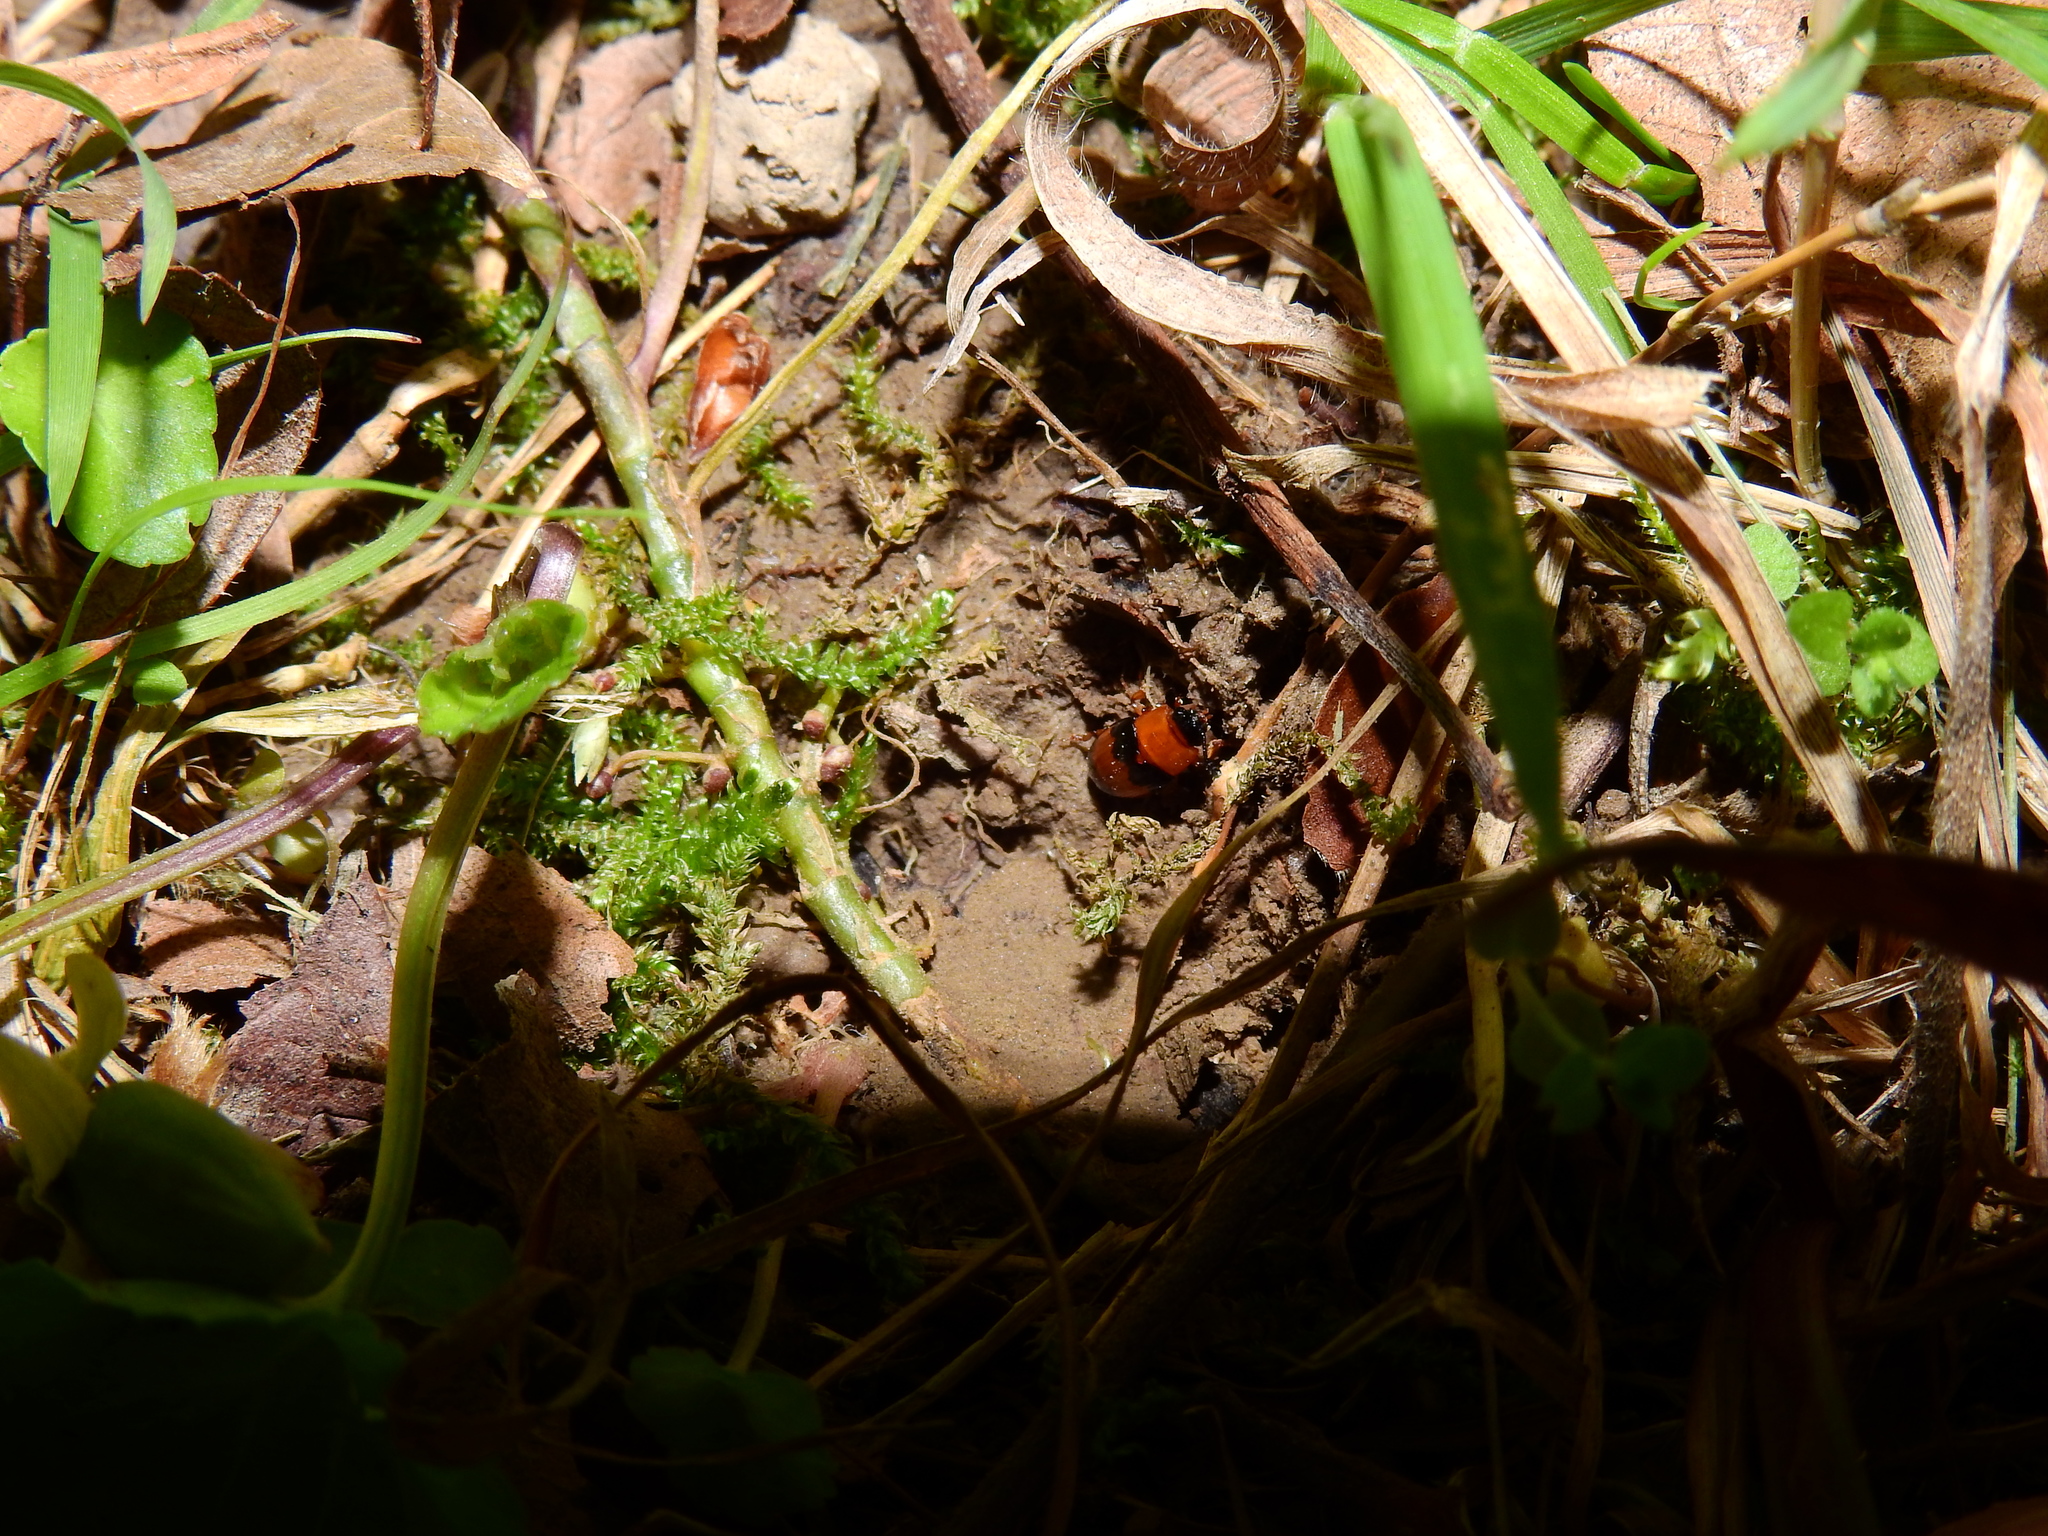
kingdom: Animalia
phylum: Arthropoda
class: Insecta
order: Coleoptera
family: Erotylidae
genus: Triplax
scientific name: Triplax festiva
